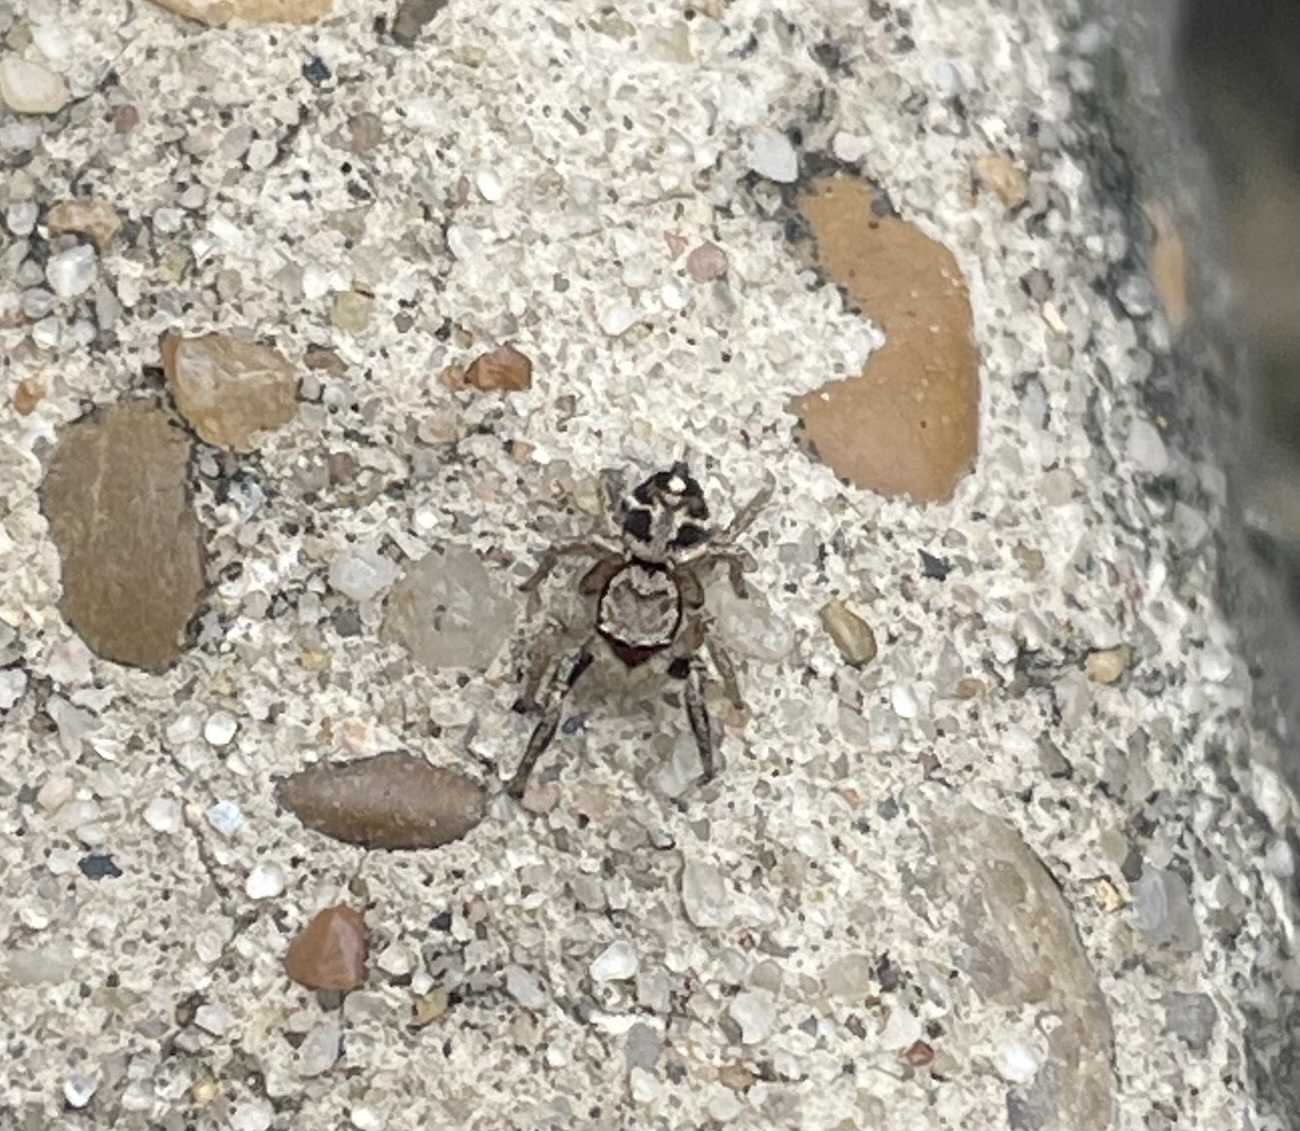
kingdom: Animalia
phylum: Arthropoda
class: Arachnida
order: Araneae
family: Salticidae
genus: Habronattus
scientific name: Habronattus coecatus
